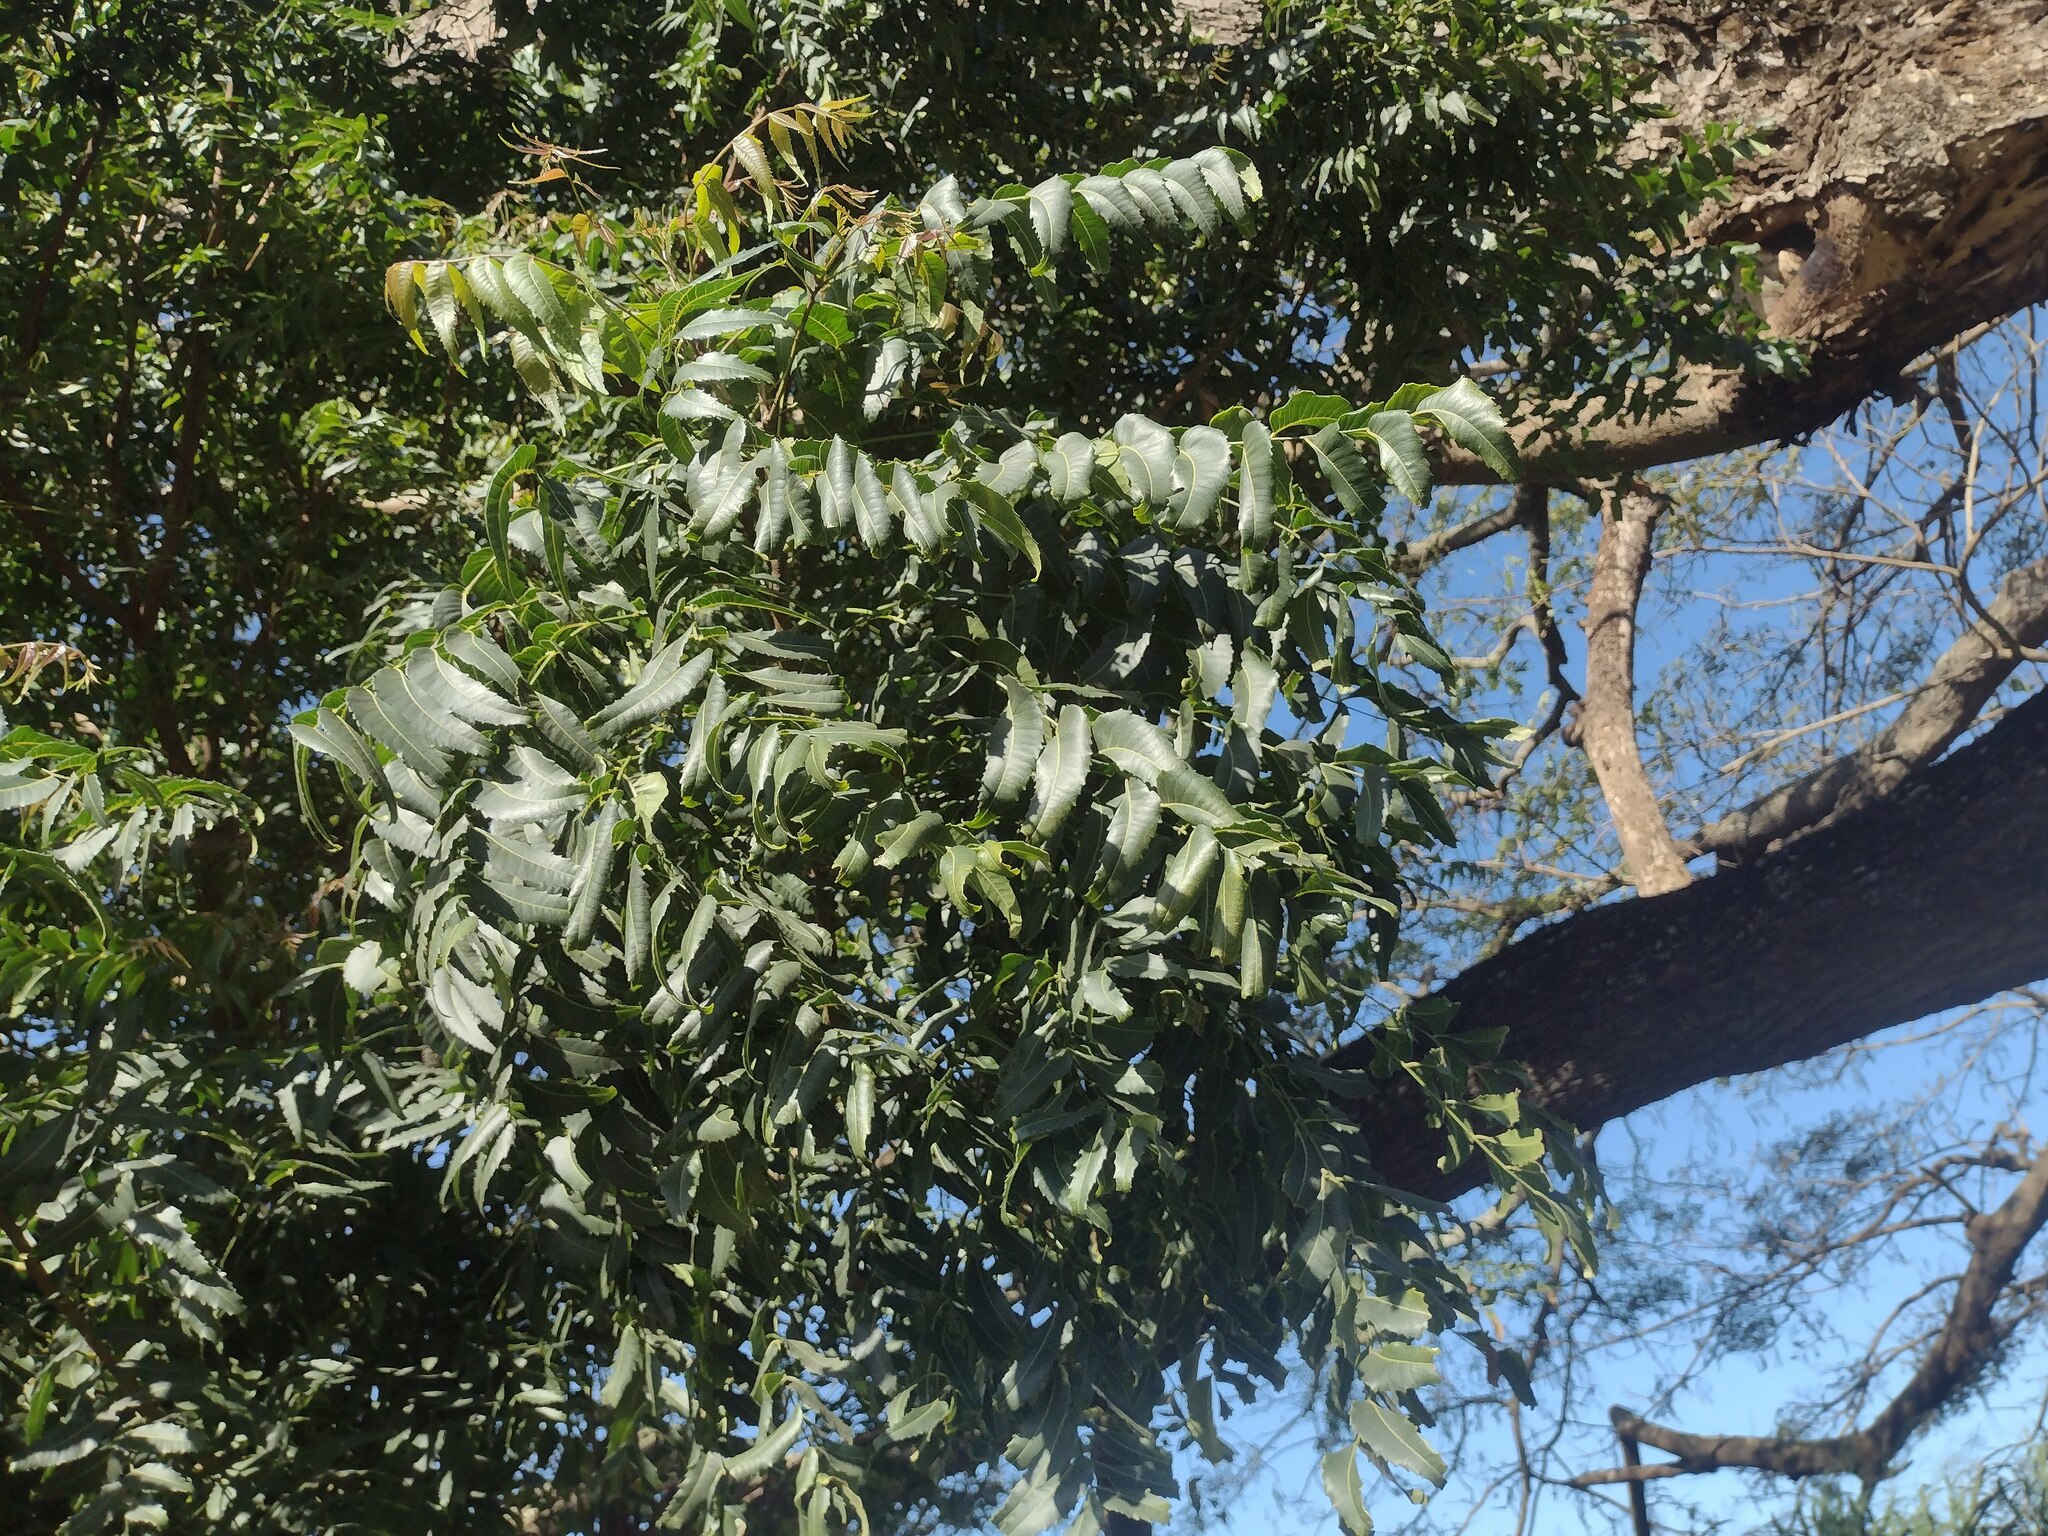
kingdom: Plantae
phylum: Tracheophyta
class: Magnoliopsida
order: Sapindales
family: Meliaceae
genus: Azadirachta
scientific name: Azadirachta indica
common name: Neem
